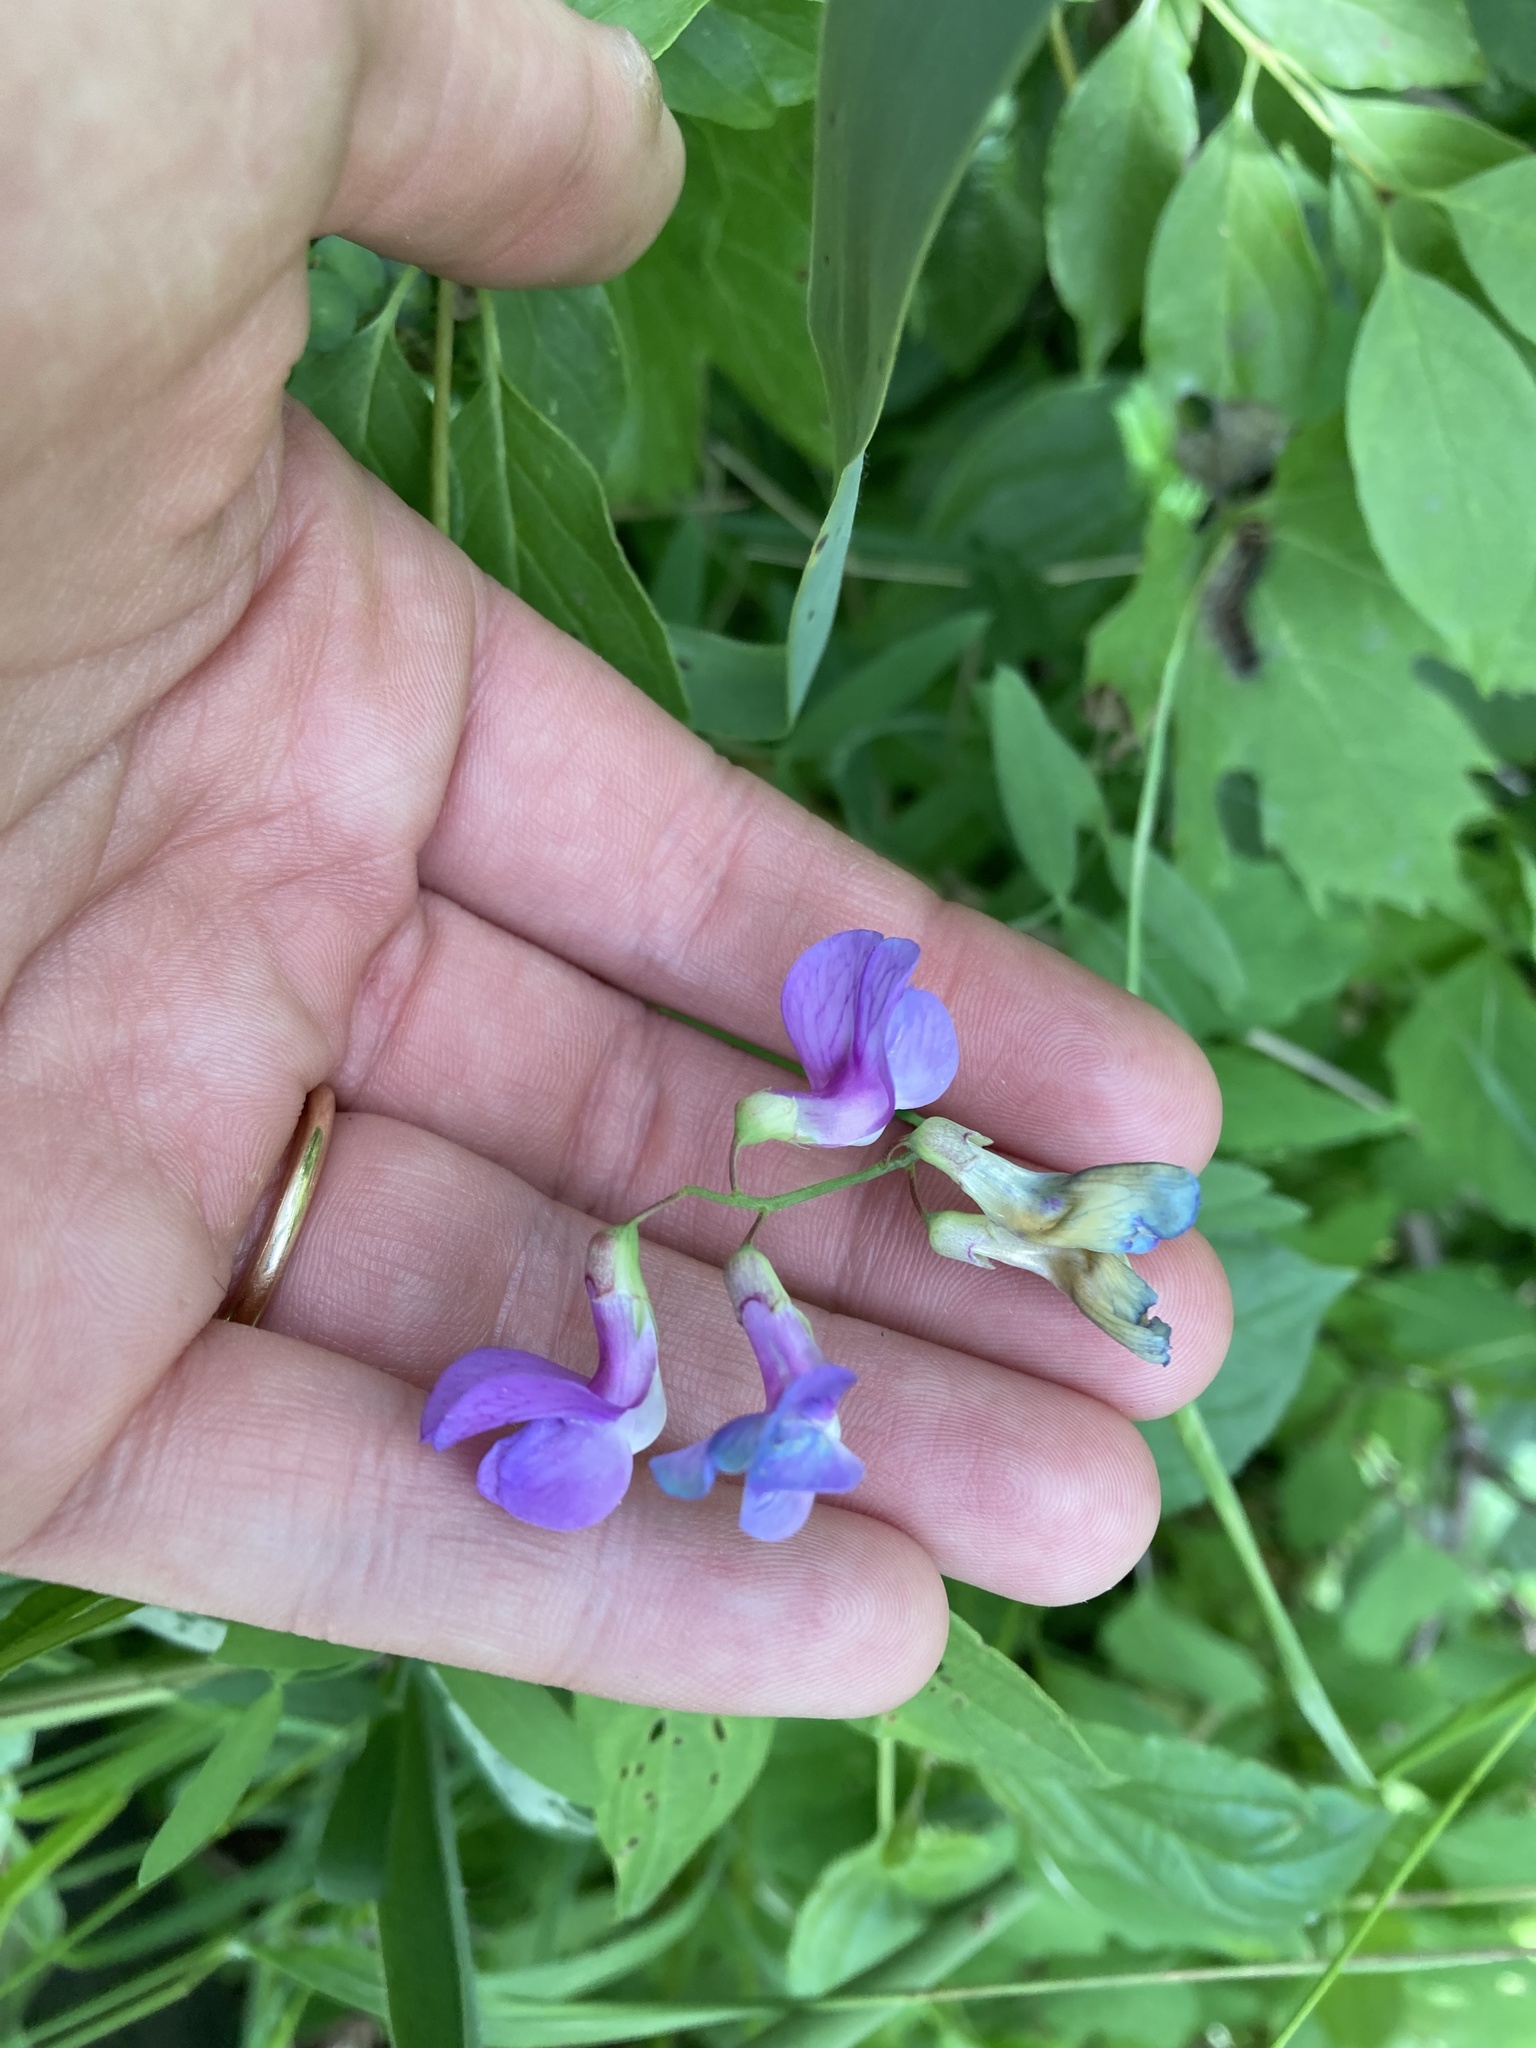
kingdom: Plantae
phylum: Tracheophyta
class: Magnoliopsida
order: Fabales
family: Fabaceae
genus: Lathyrus
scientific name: Lathyrus palustris
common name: Marsh pea
